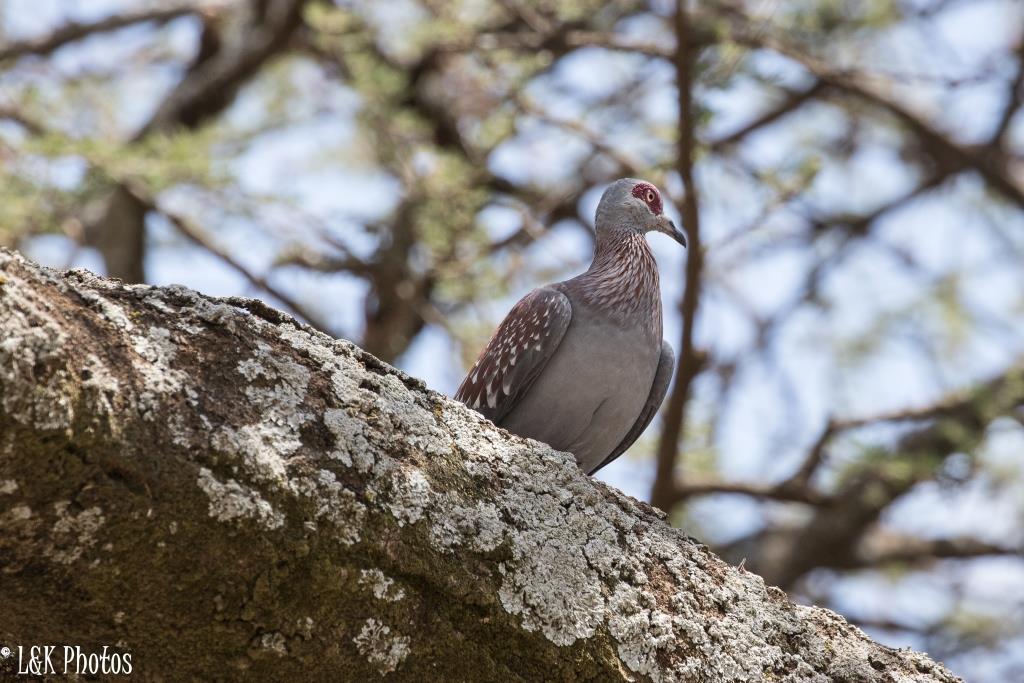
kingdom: Animalia
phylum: Chordata
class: Aves
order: Columbiformes
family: Columbidae
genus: Columba
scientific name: Columba guinea
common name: Speckled pigeon
